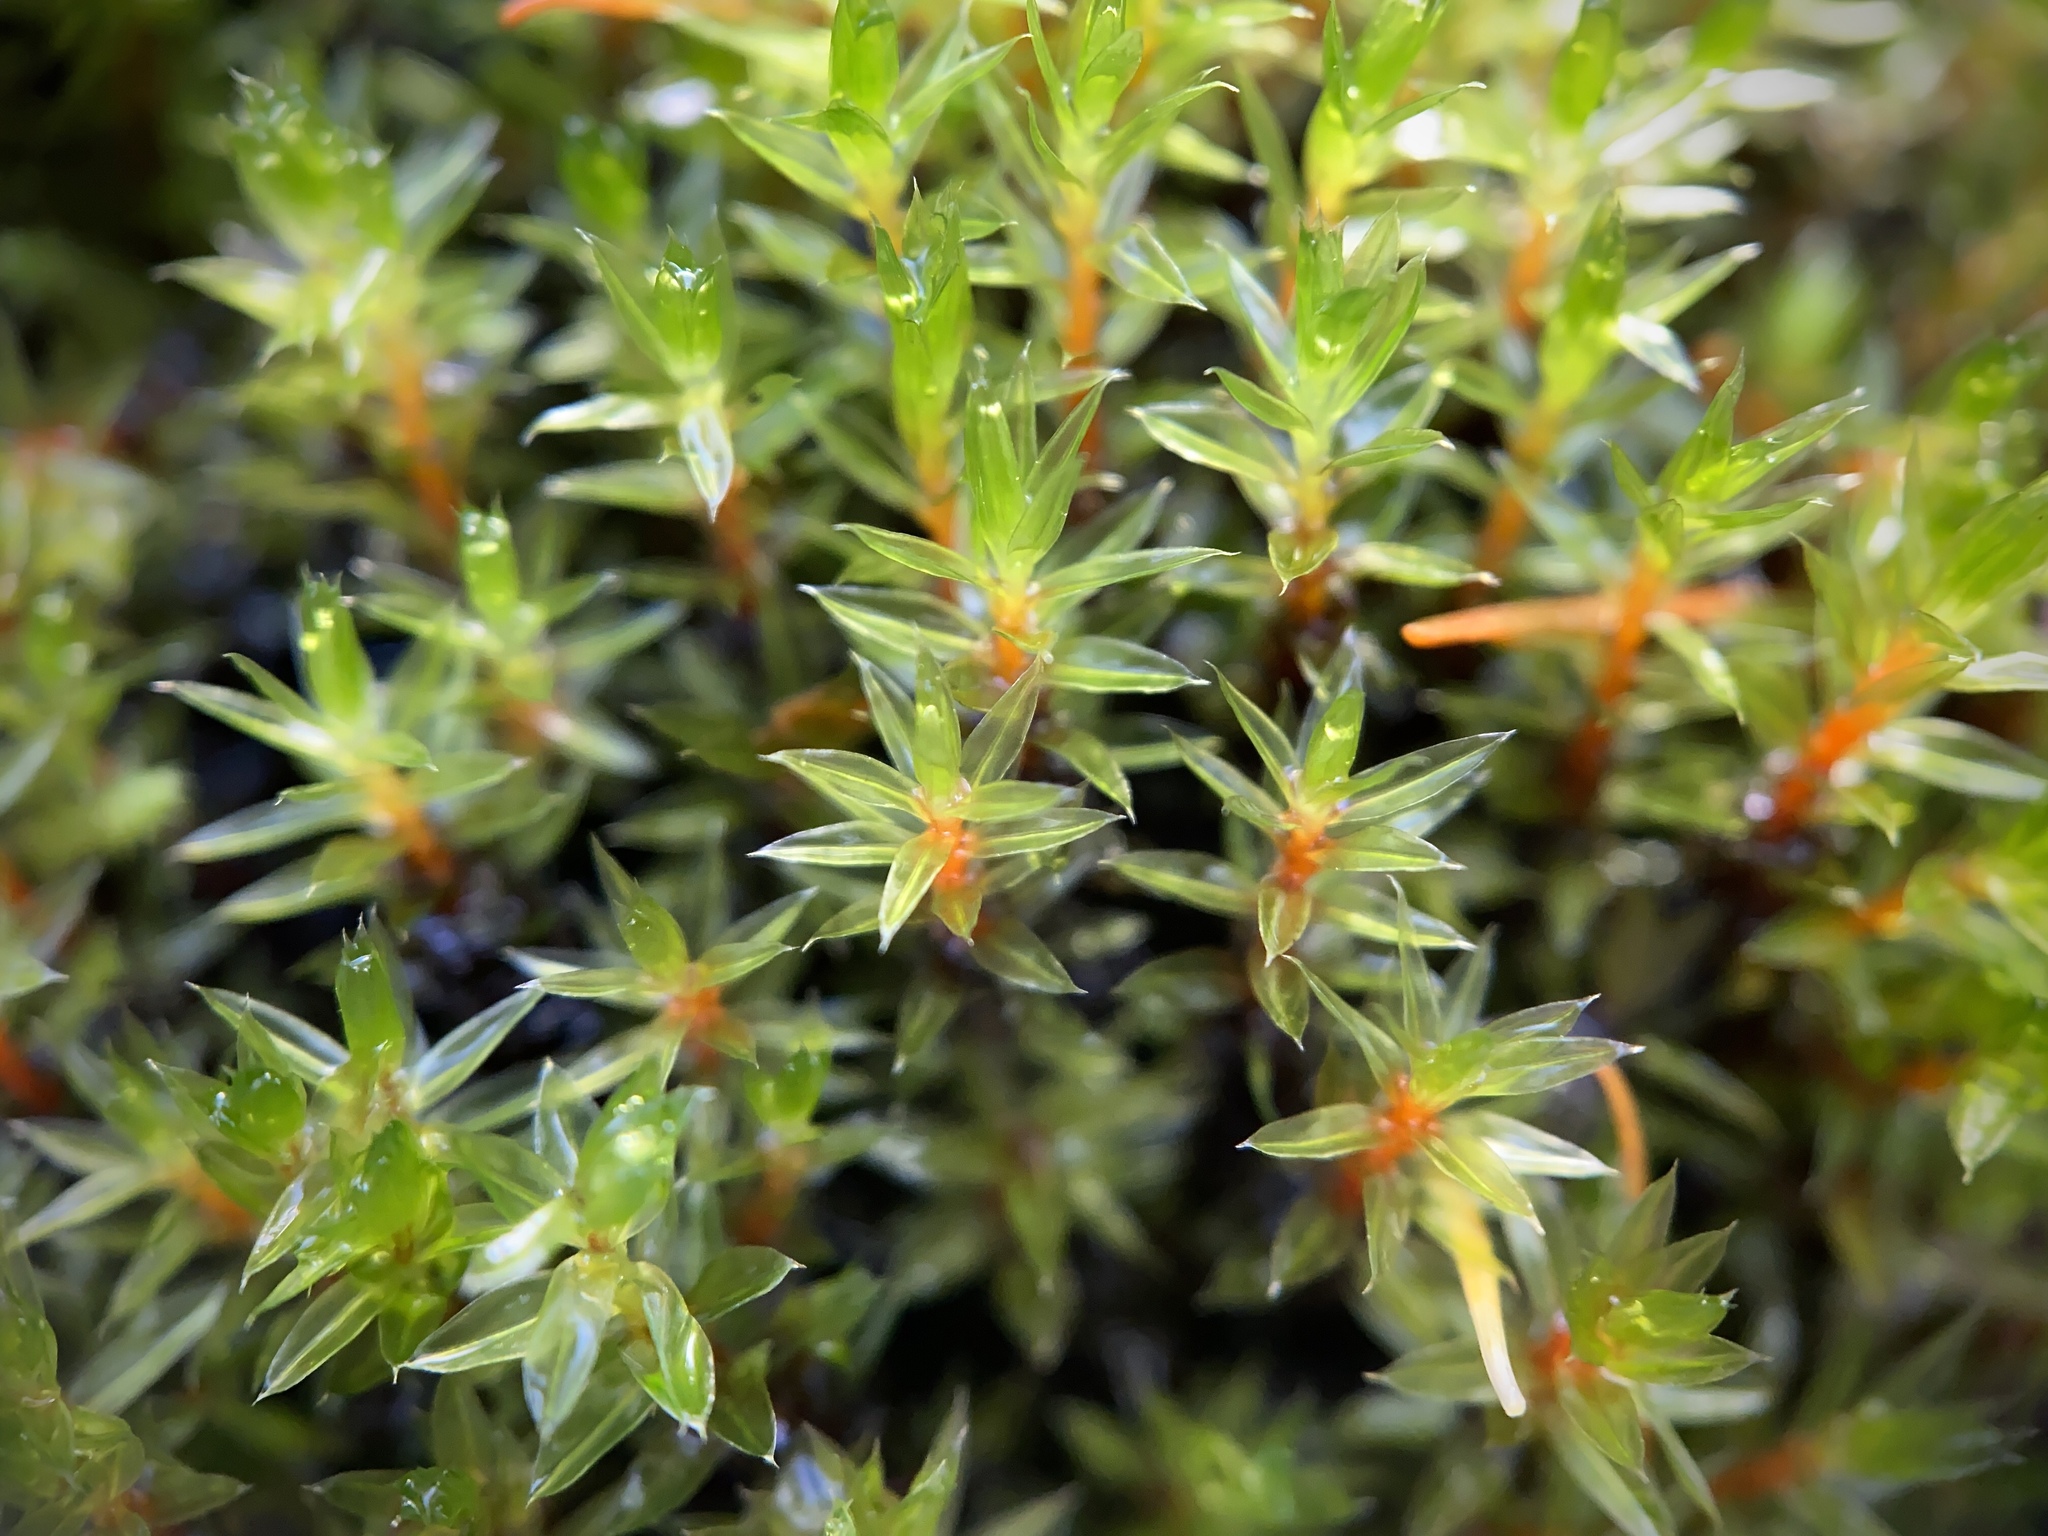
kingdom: Plantae
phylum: Bryophyta
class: Bryopsida
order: Bryales
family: Bryaceae
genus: Ptychostomum
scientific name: Ptychostomum pseudotriquetrum
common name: Long-leaved thread moss
